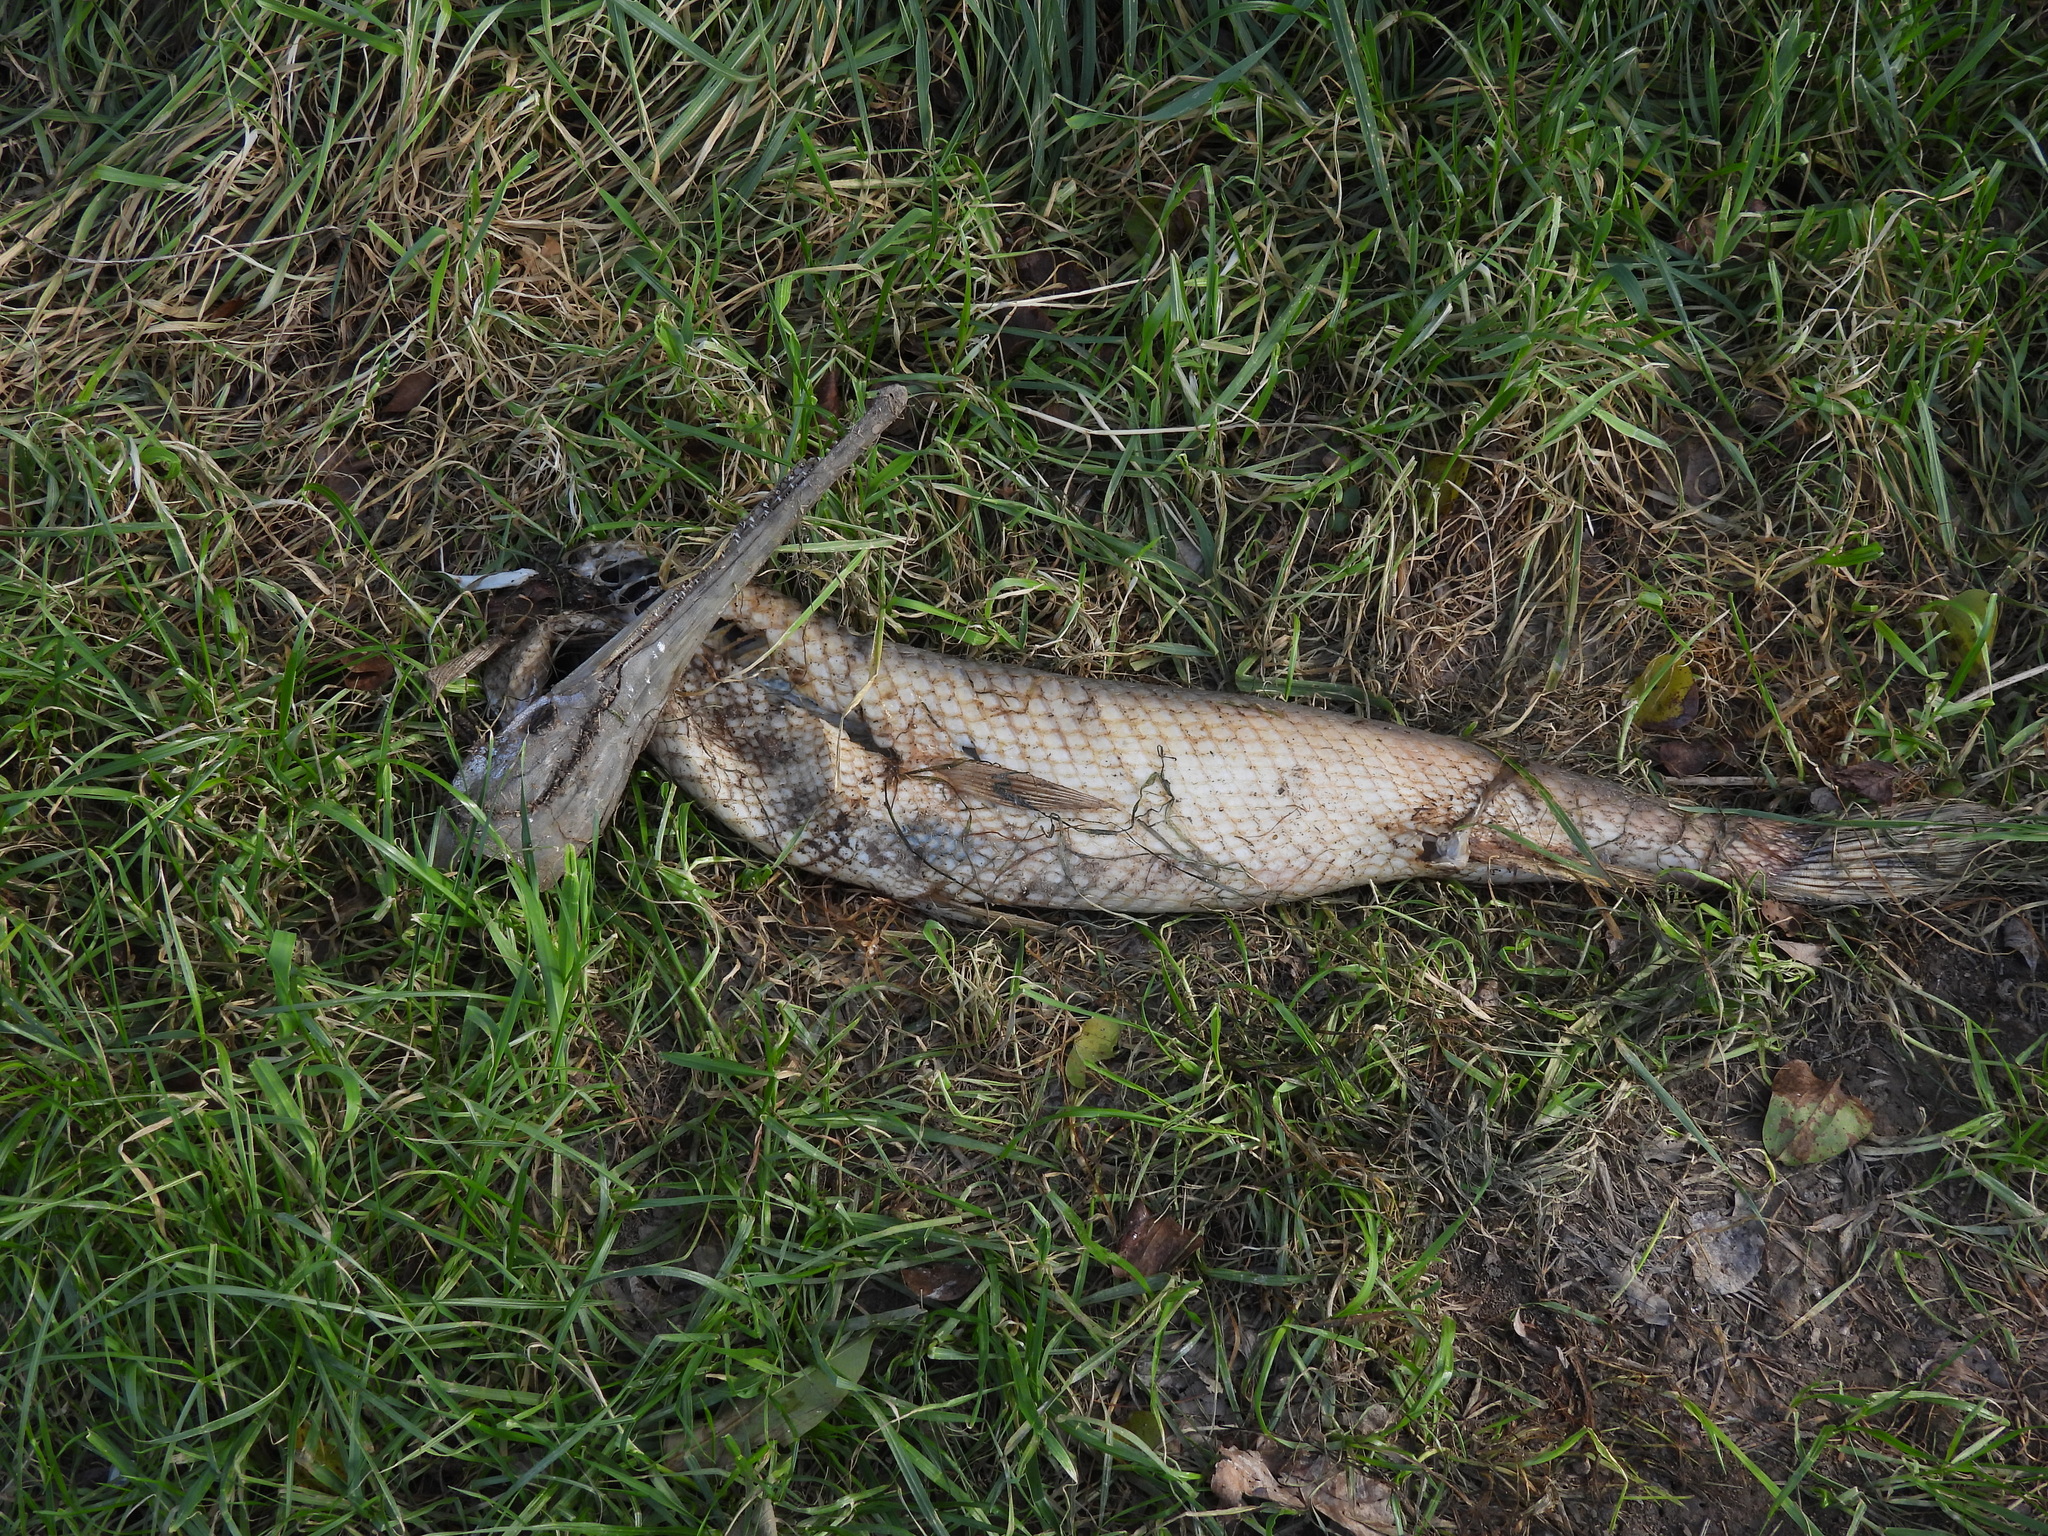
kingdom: Animalia
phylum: Chordata
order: Lepisosteiformes
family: Lepisosteidae
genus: Lepisosteus
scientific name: Lepisosteus osseus
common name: Longnose gar
